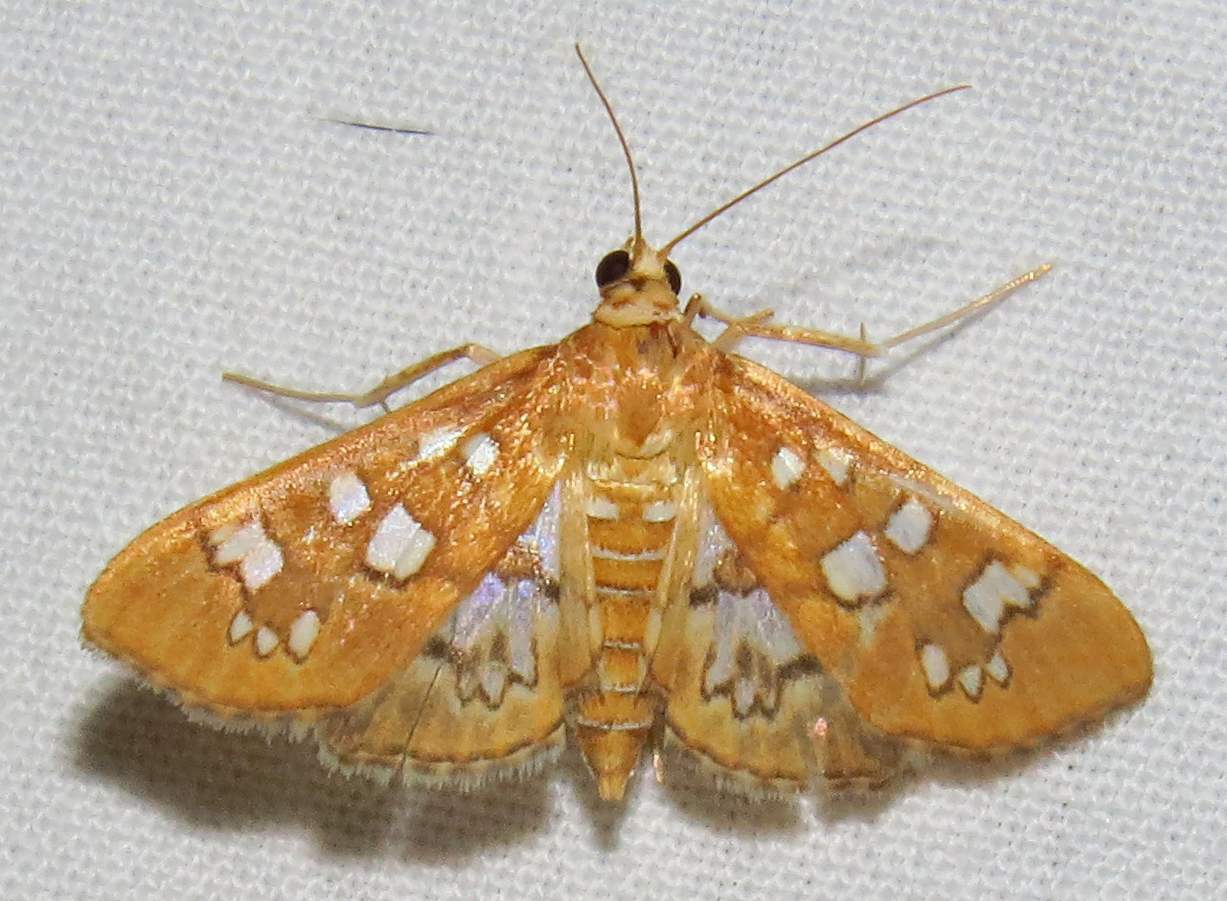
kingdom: Animalia
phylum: Arthropoda
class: Insecta
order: Lepidoptera
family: Crambidae
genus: Samea
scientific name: Samea baccatalis
